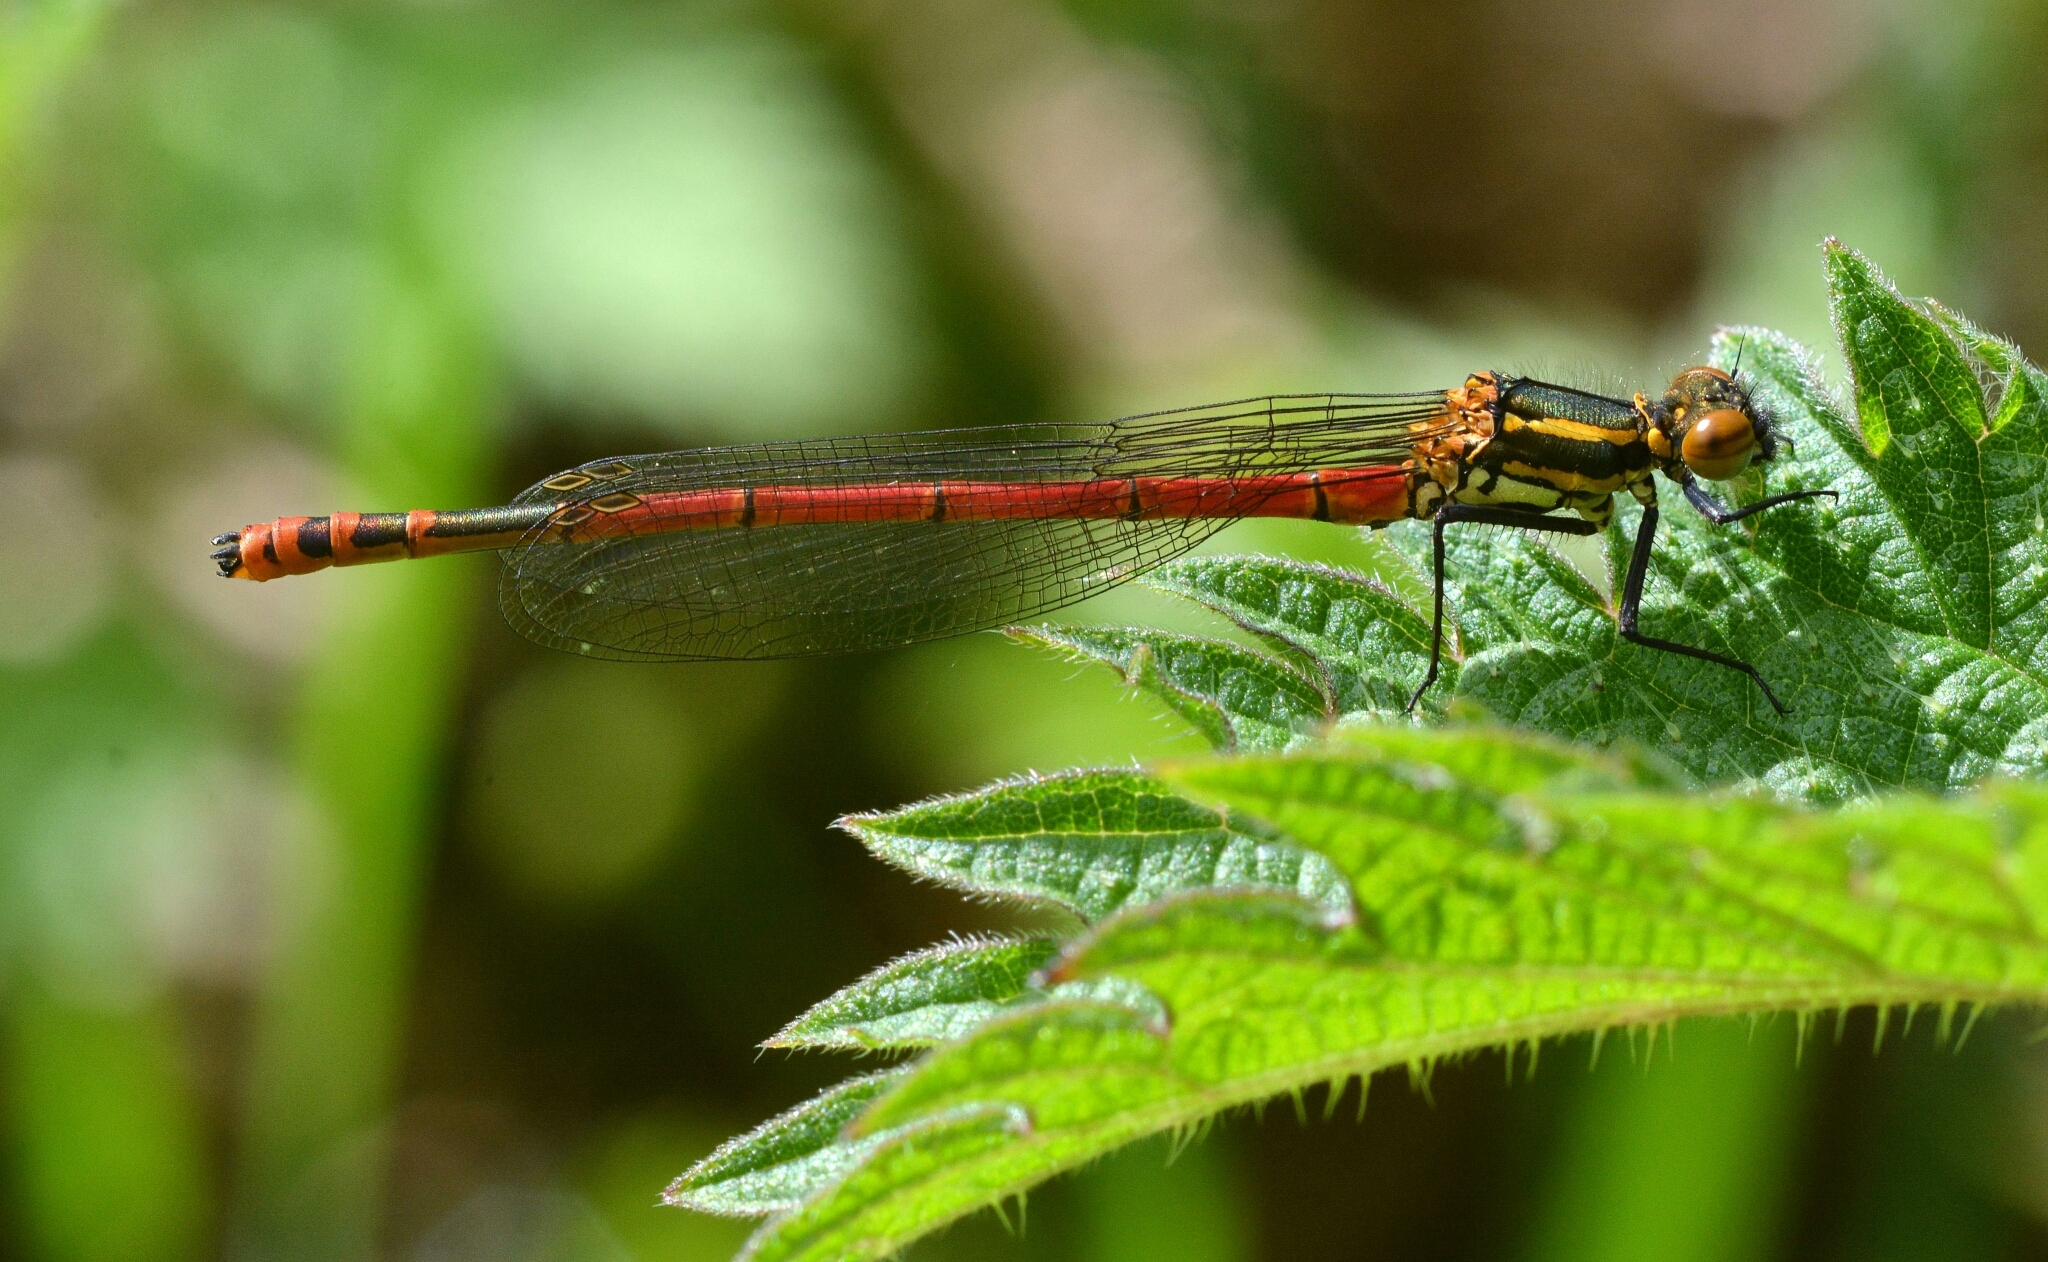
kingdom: Animalia
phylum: Arthropoda
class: Insecta
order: Odonata
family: Coenagrionidae
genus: Pyrrhosoma
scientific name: Pyrrhosoma nymphula
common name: Large red damsel
